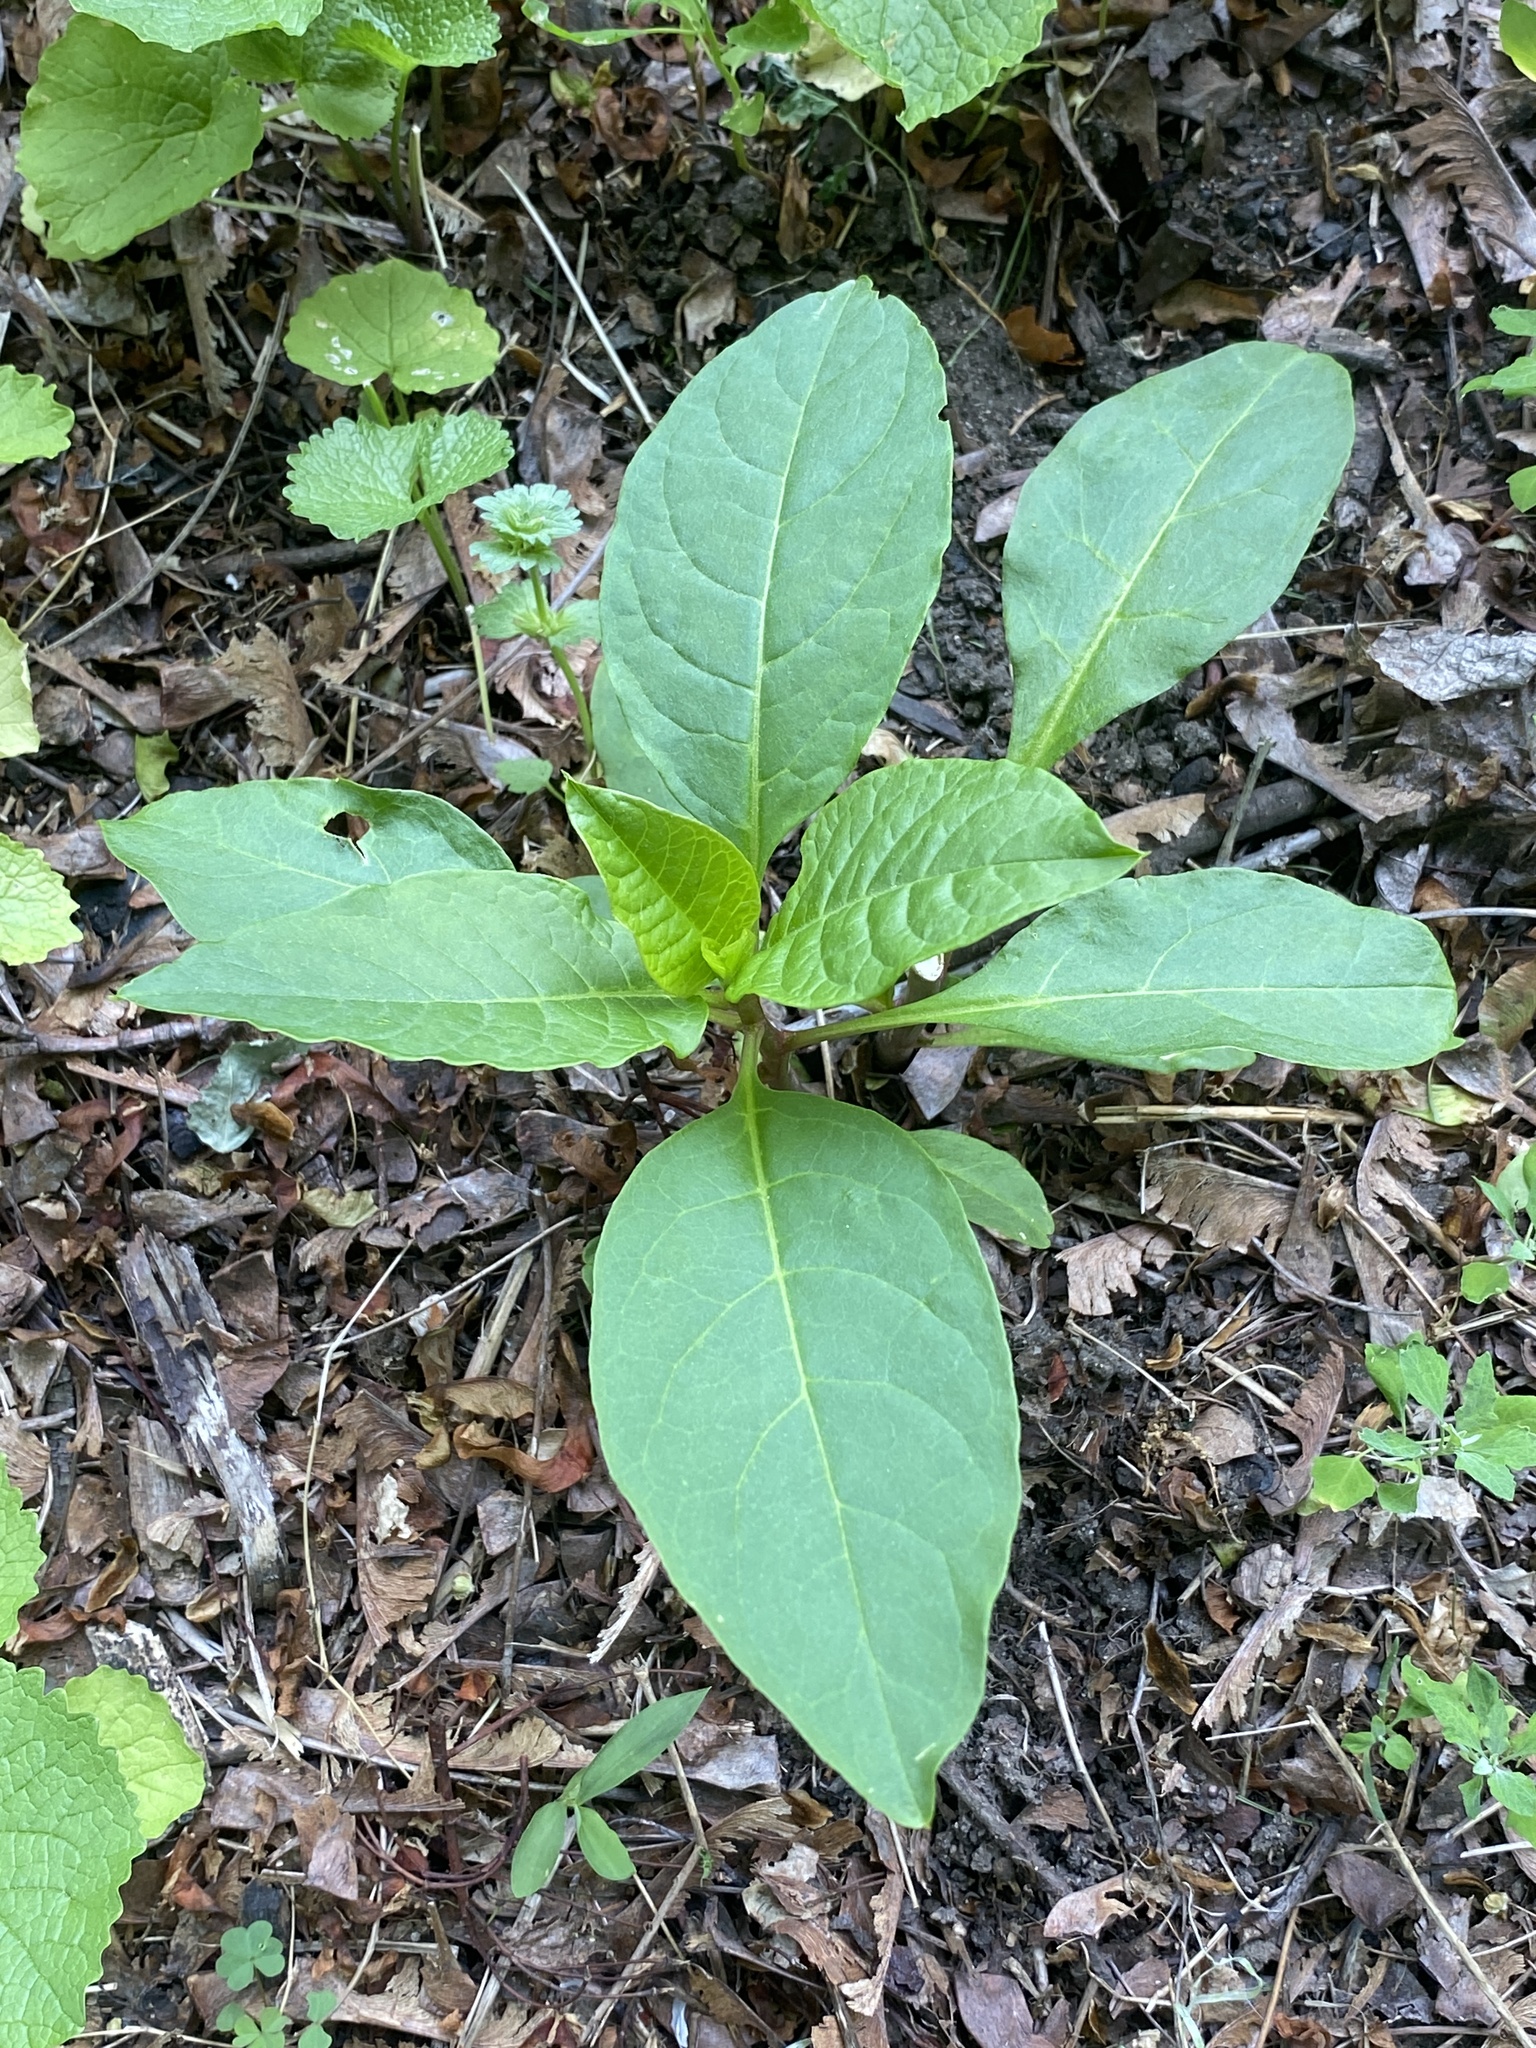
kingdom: Plantae
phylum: Tracheophyta
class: Magnoliopsida
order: Caryophyllales
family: Phytolaccaceae
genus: Phytolacca
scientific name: Phytolacca americana
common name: American pokeweed
